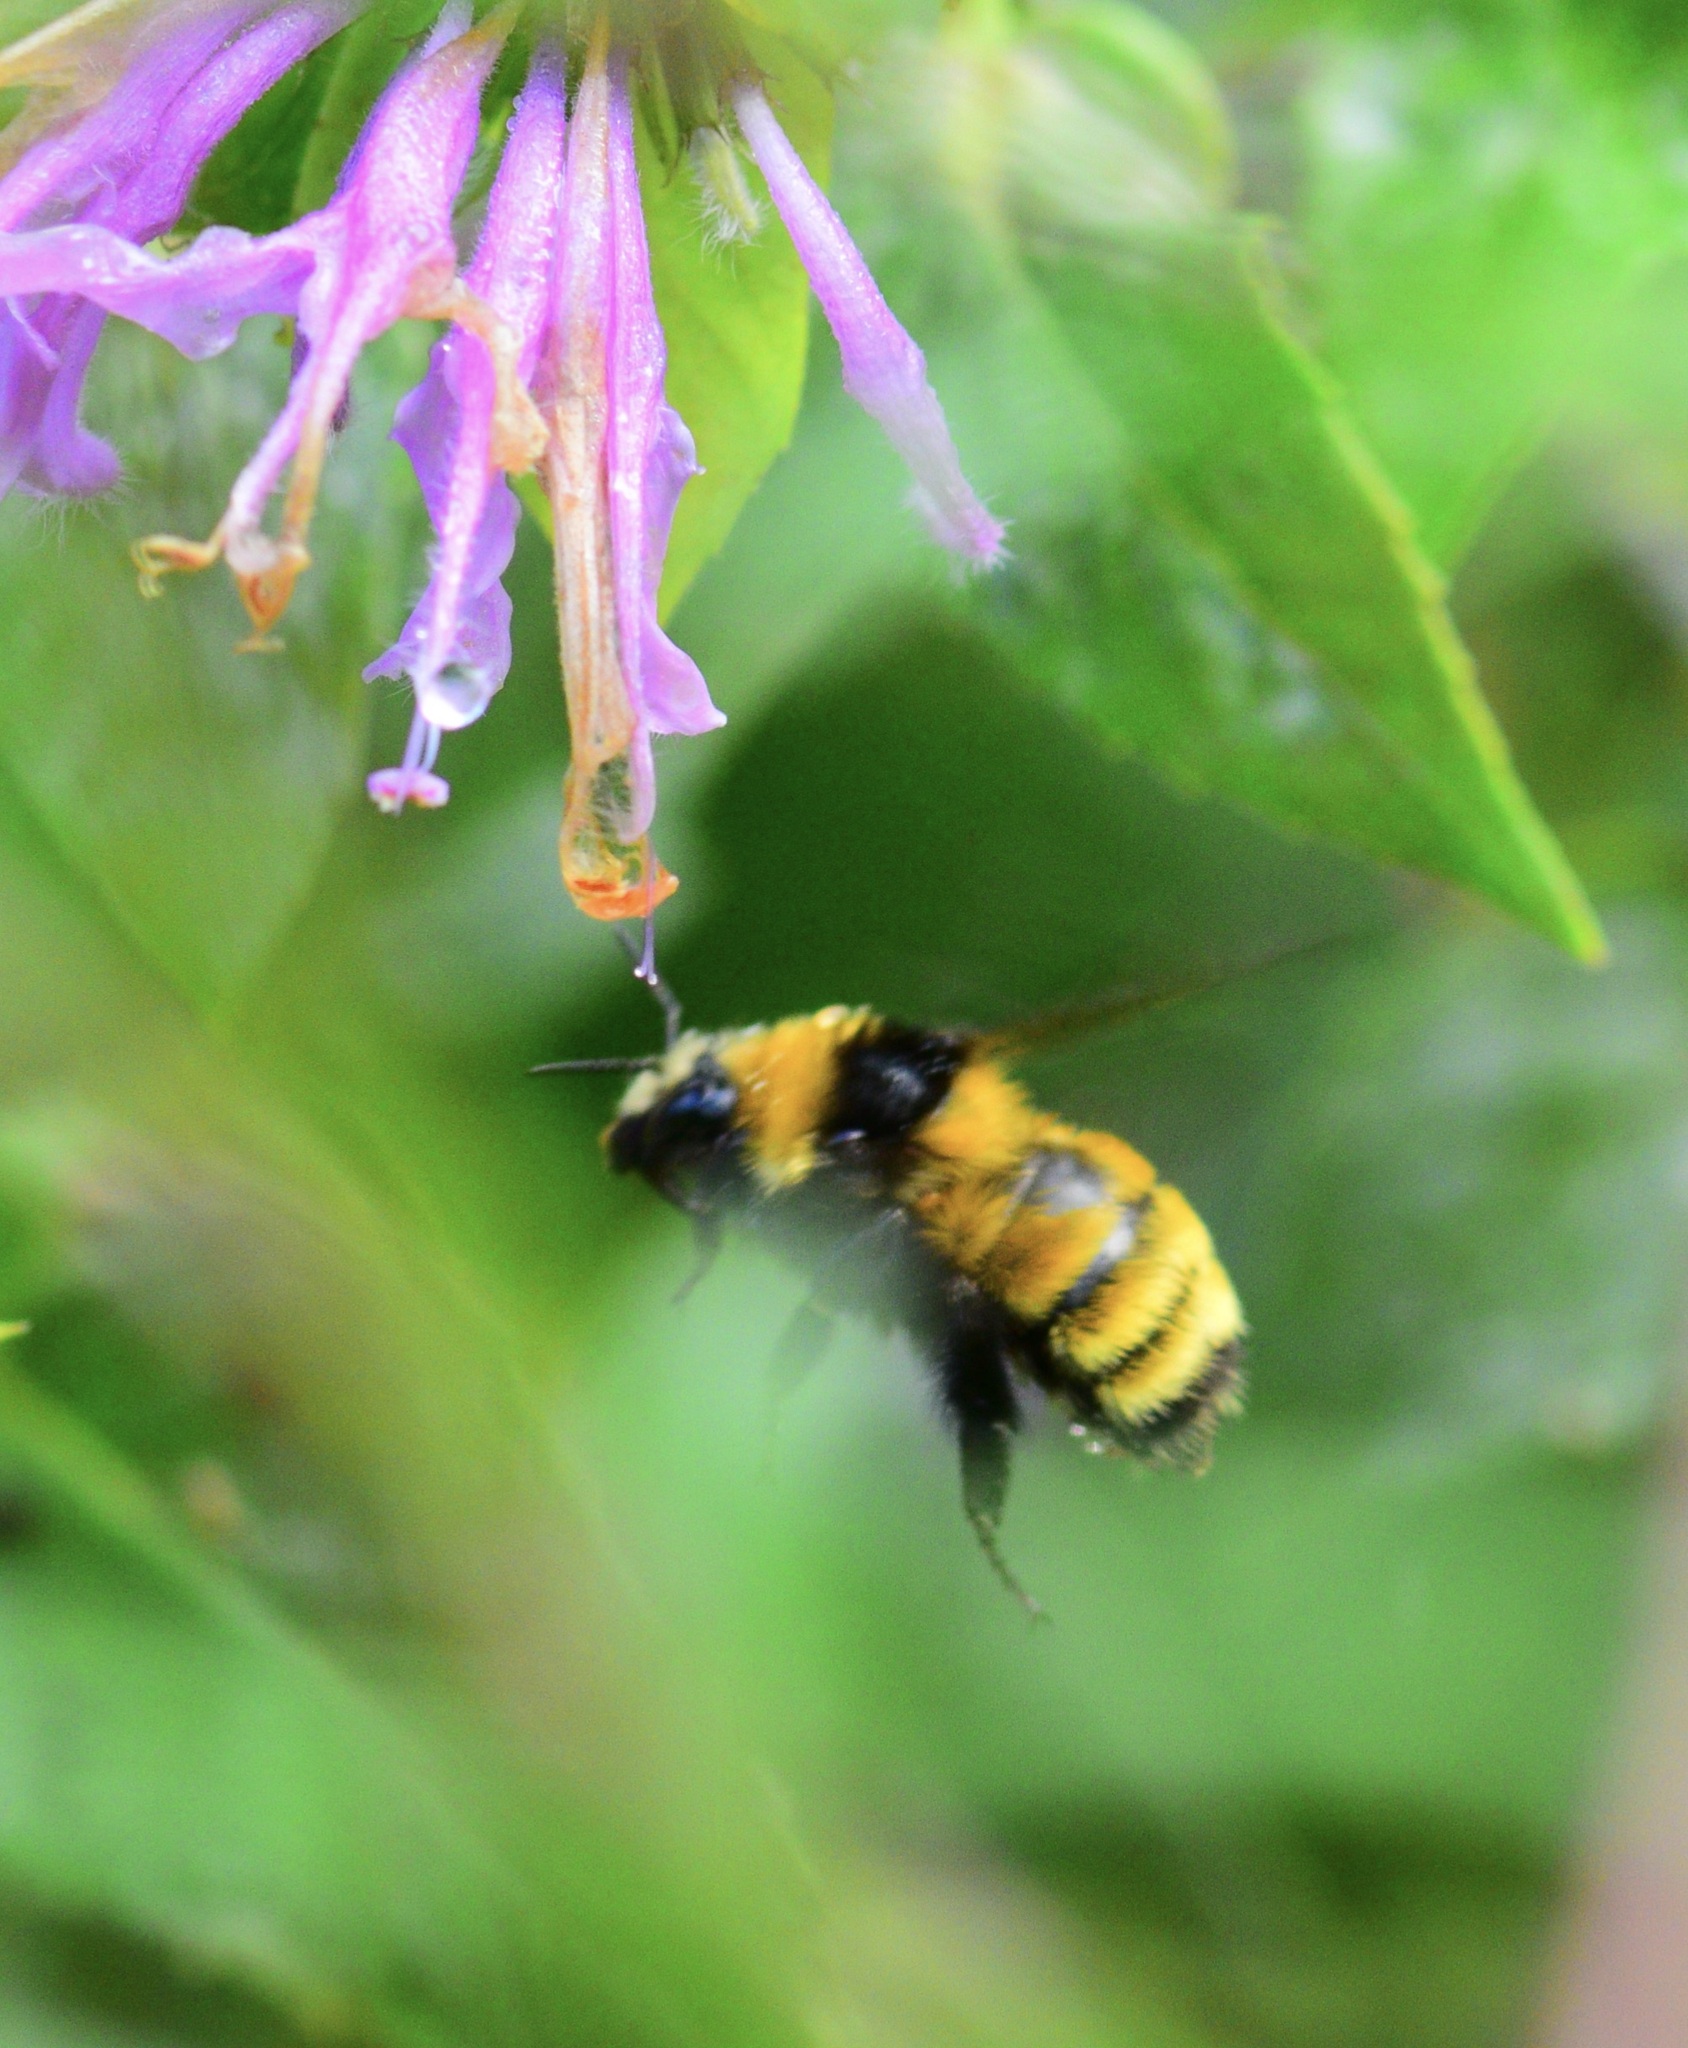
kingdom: Animalia
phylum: Arthropoda
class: Insecta
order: Hymenoptera
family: Apidae
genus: Bombus
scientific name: Bombus borealis
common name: Northern amber bumble bee
